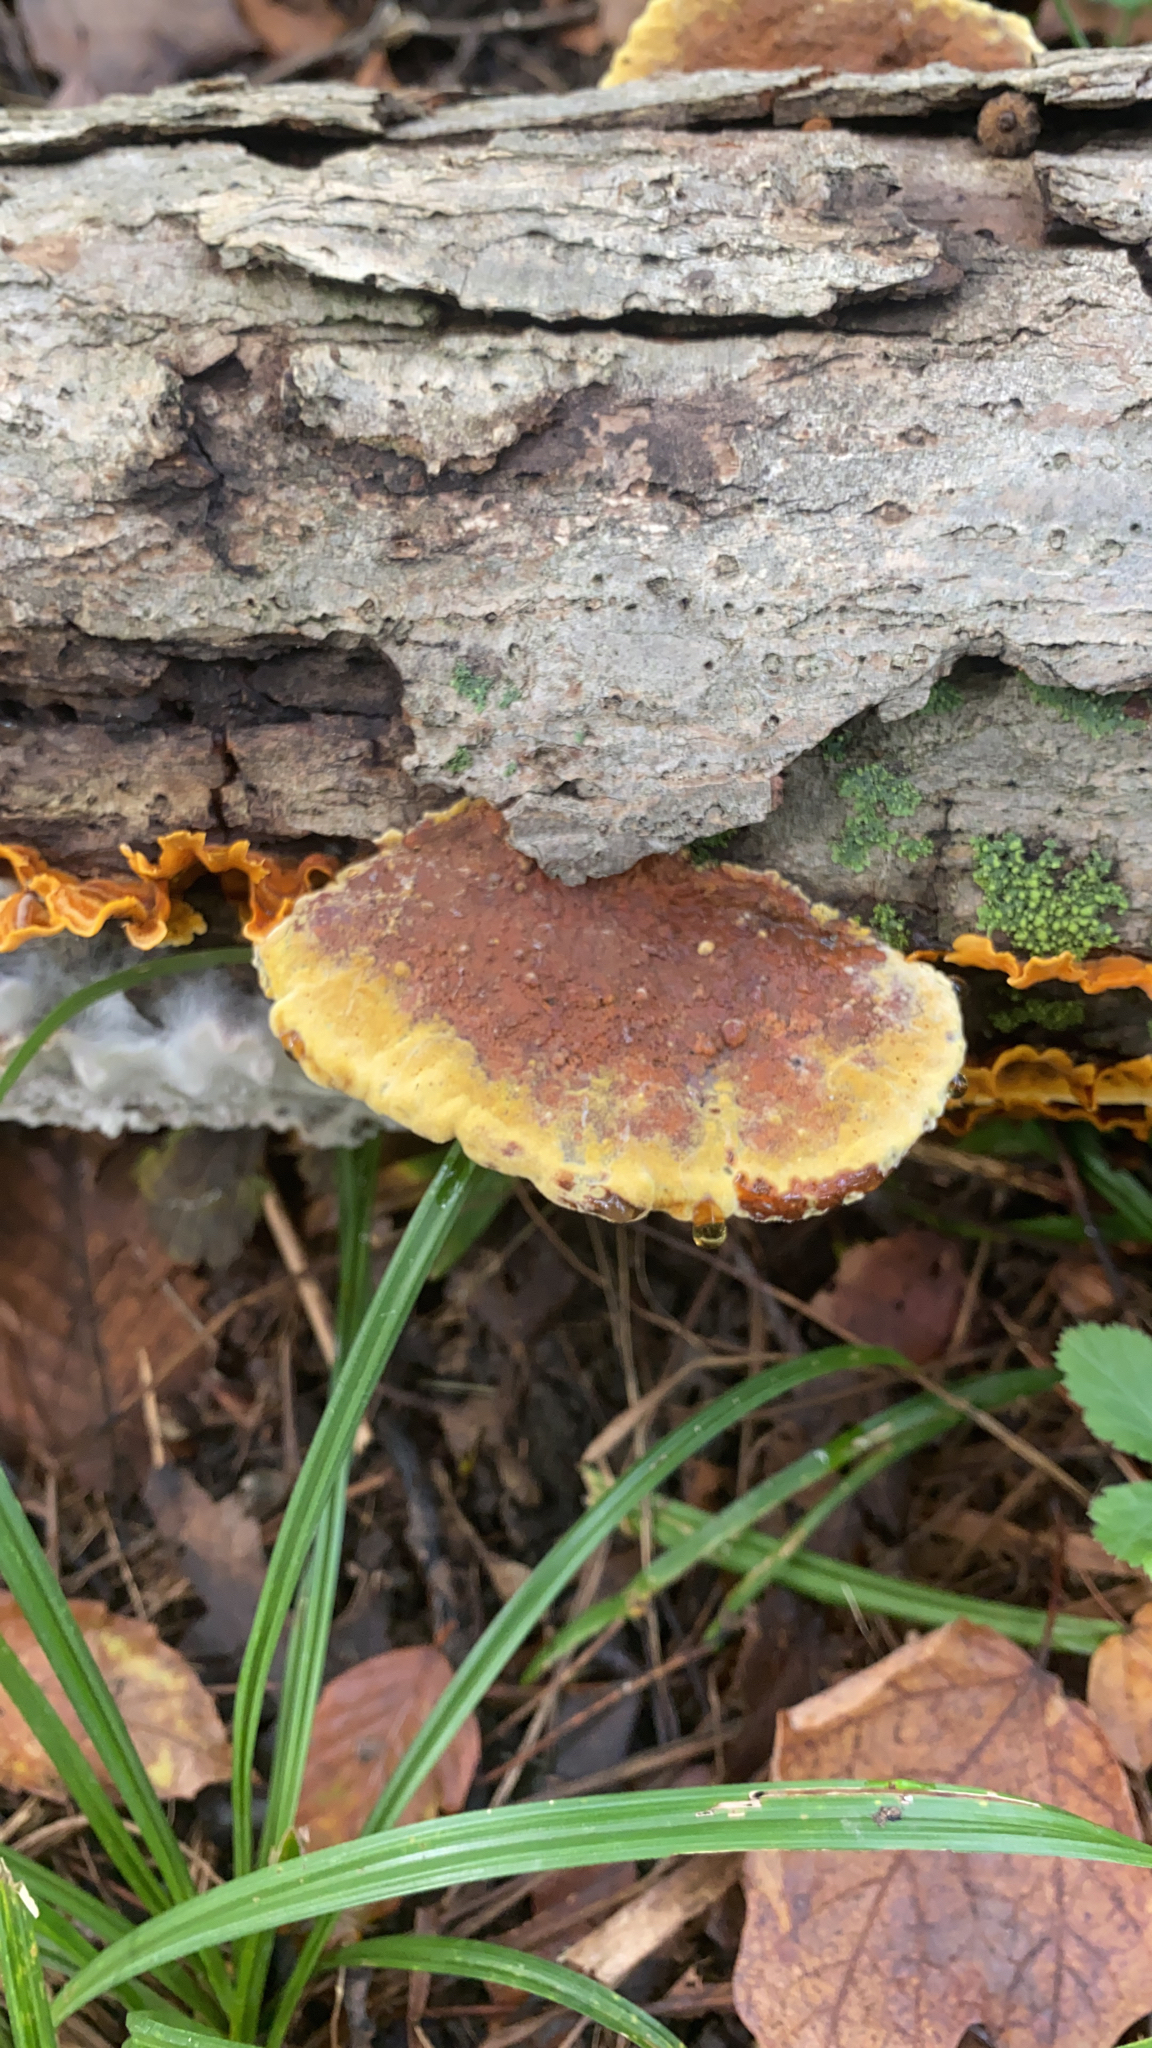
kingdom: Fungi
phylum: Basidiomycota
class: Agaricomycetes
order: Hymenochaetales
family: Hymenochaetaceae
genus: Phellinus
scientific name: Phellinus gilvus
